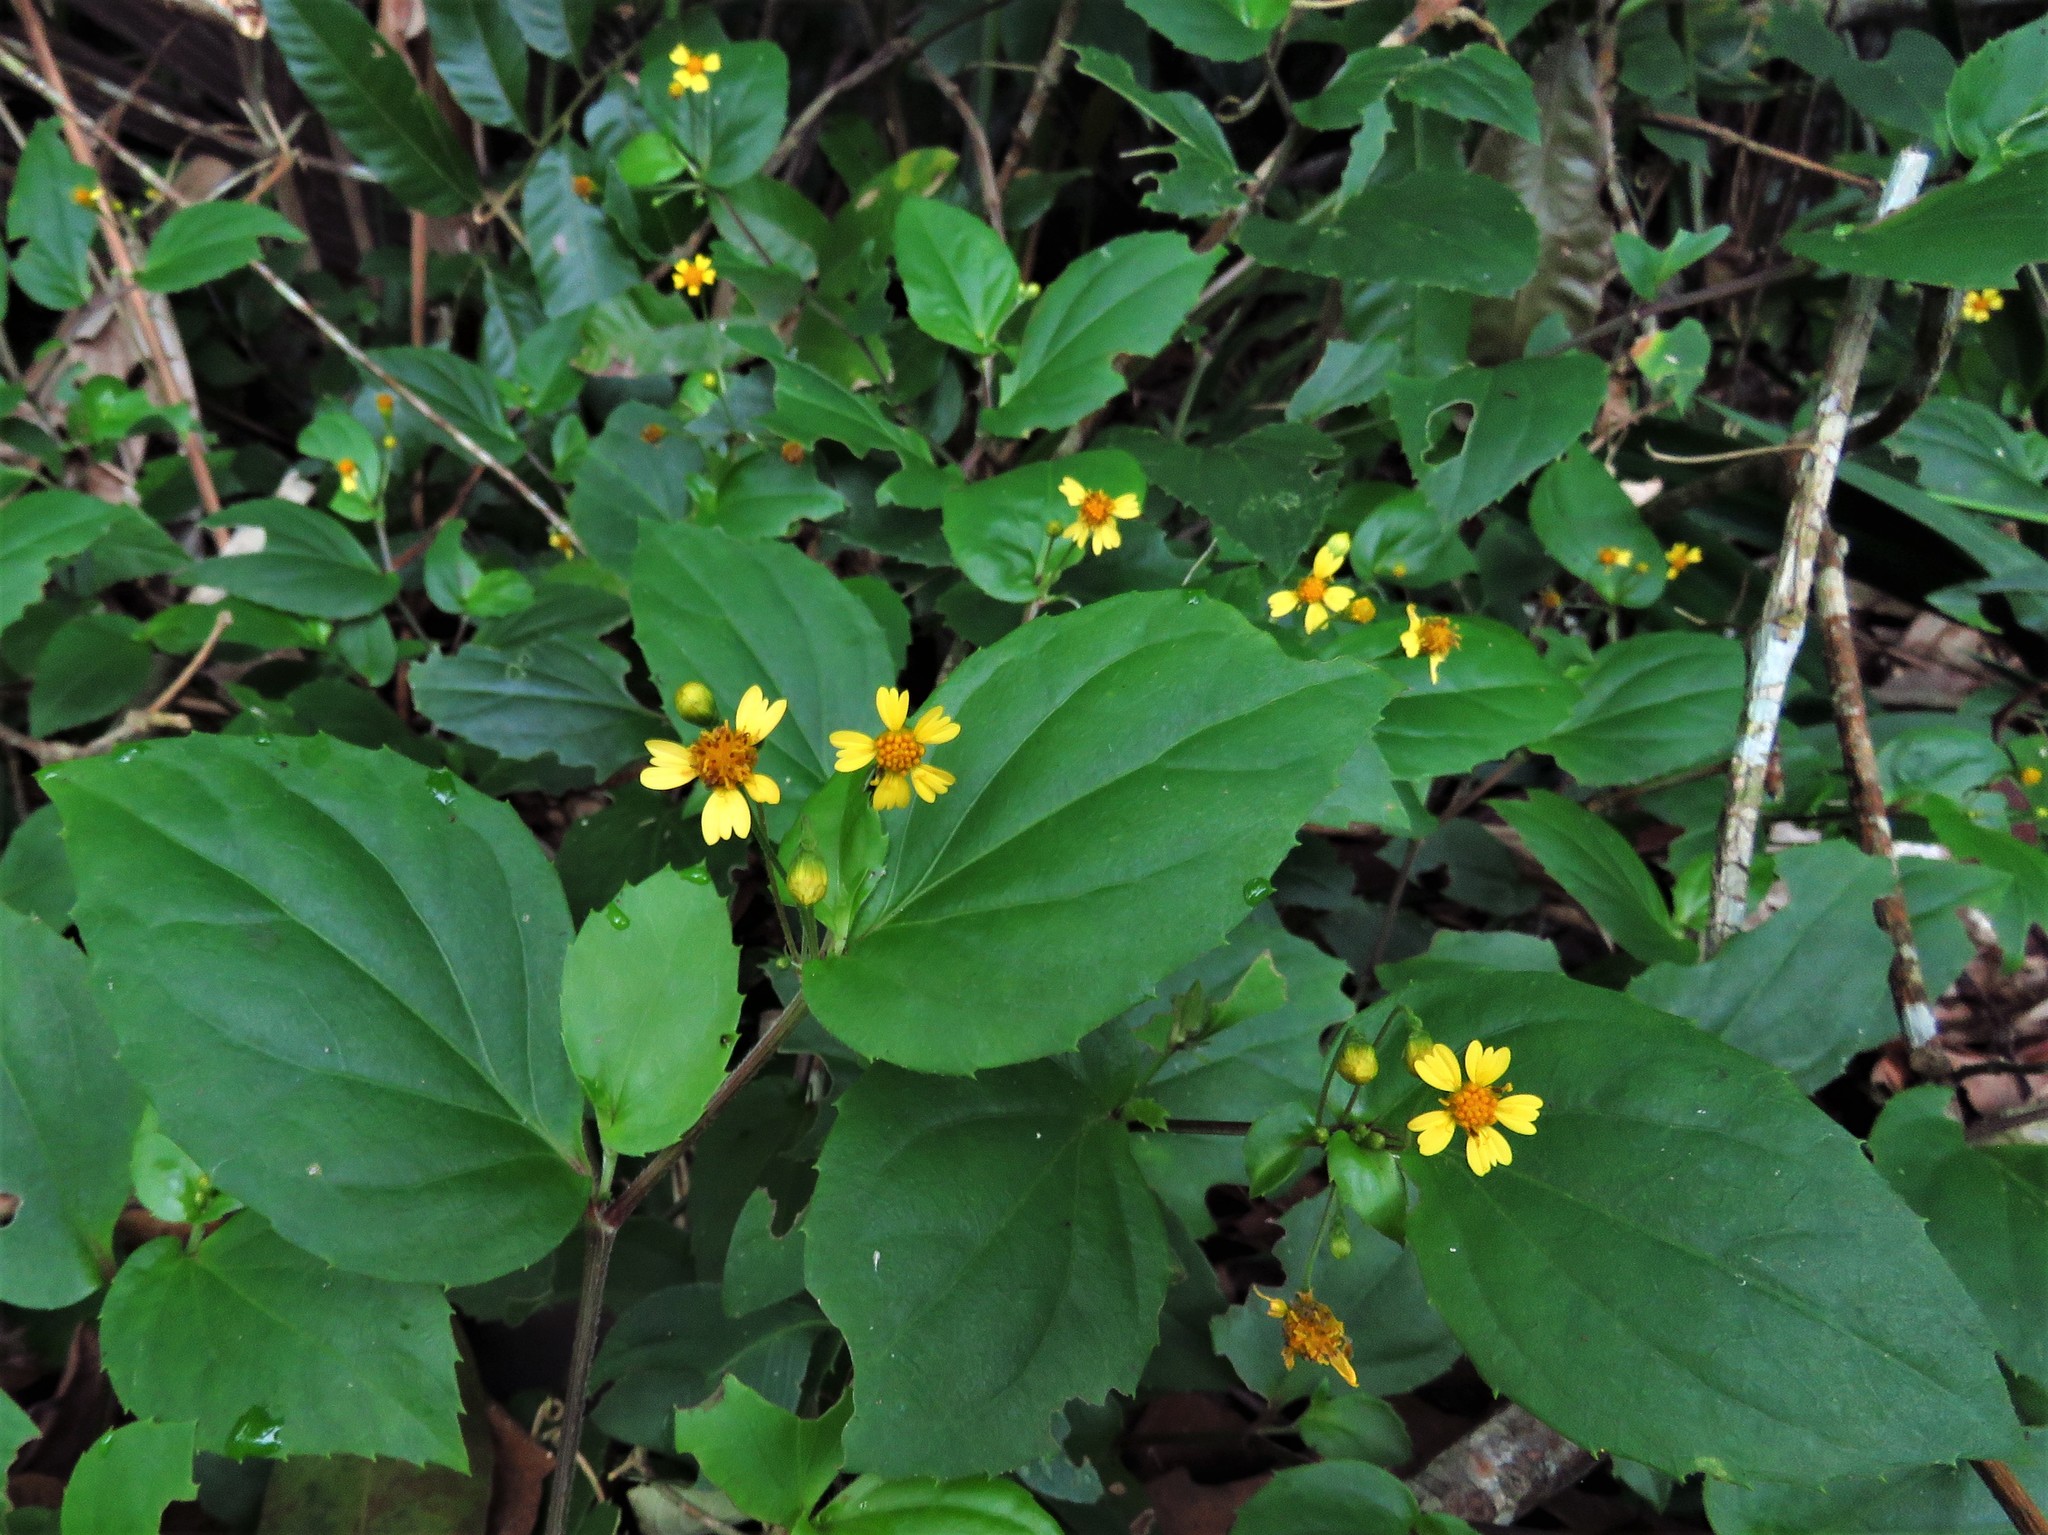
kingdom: Plantae
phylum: Tracheophyta
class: Magnoliopsida
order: Asterales
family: Asteraceae
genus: Goldmanella
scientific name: Goldmanella sarmentosa
